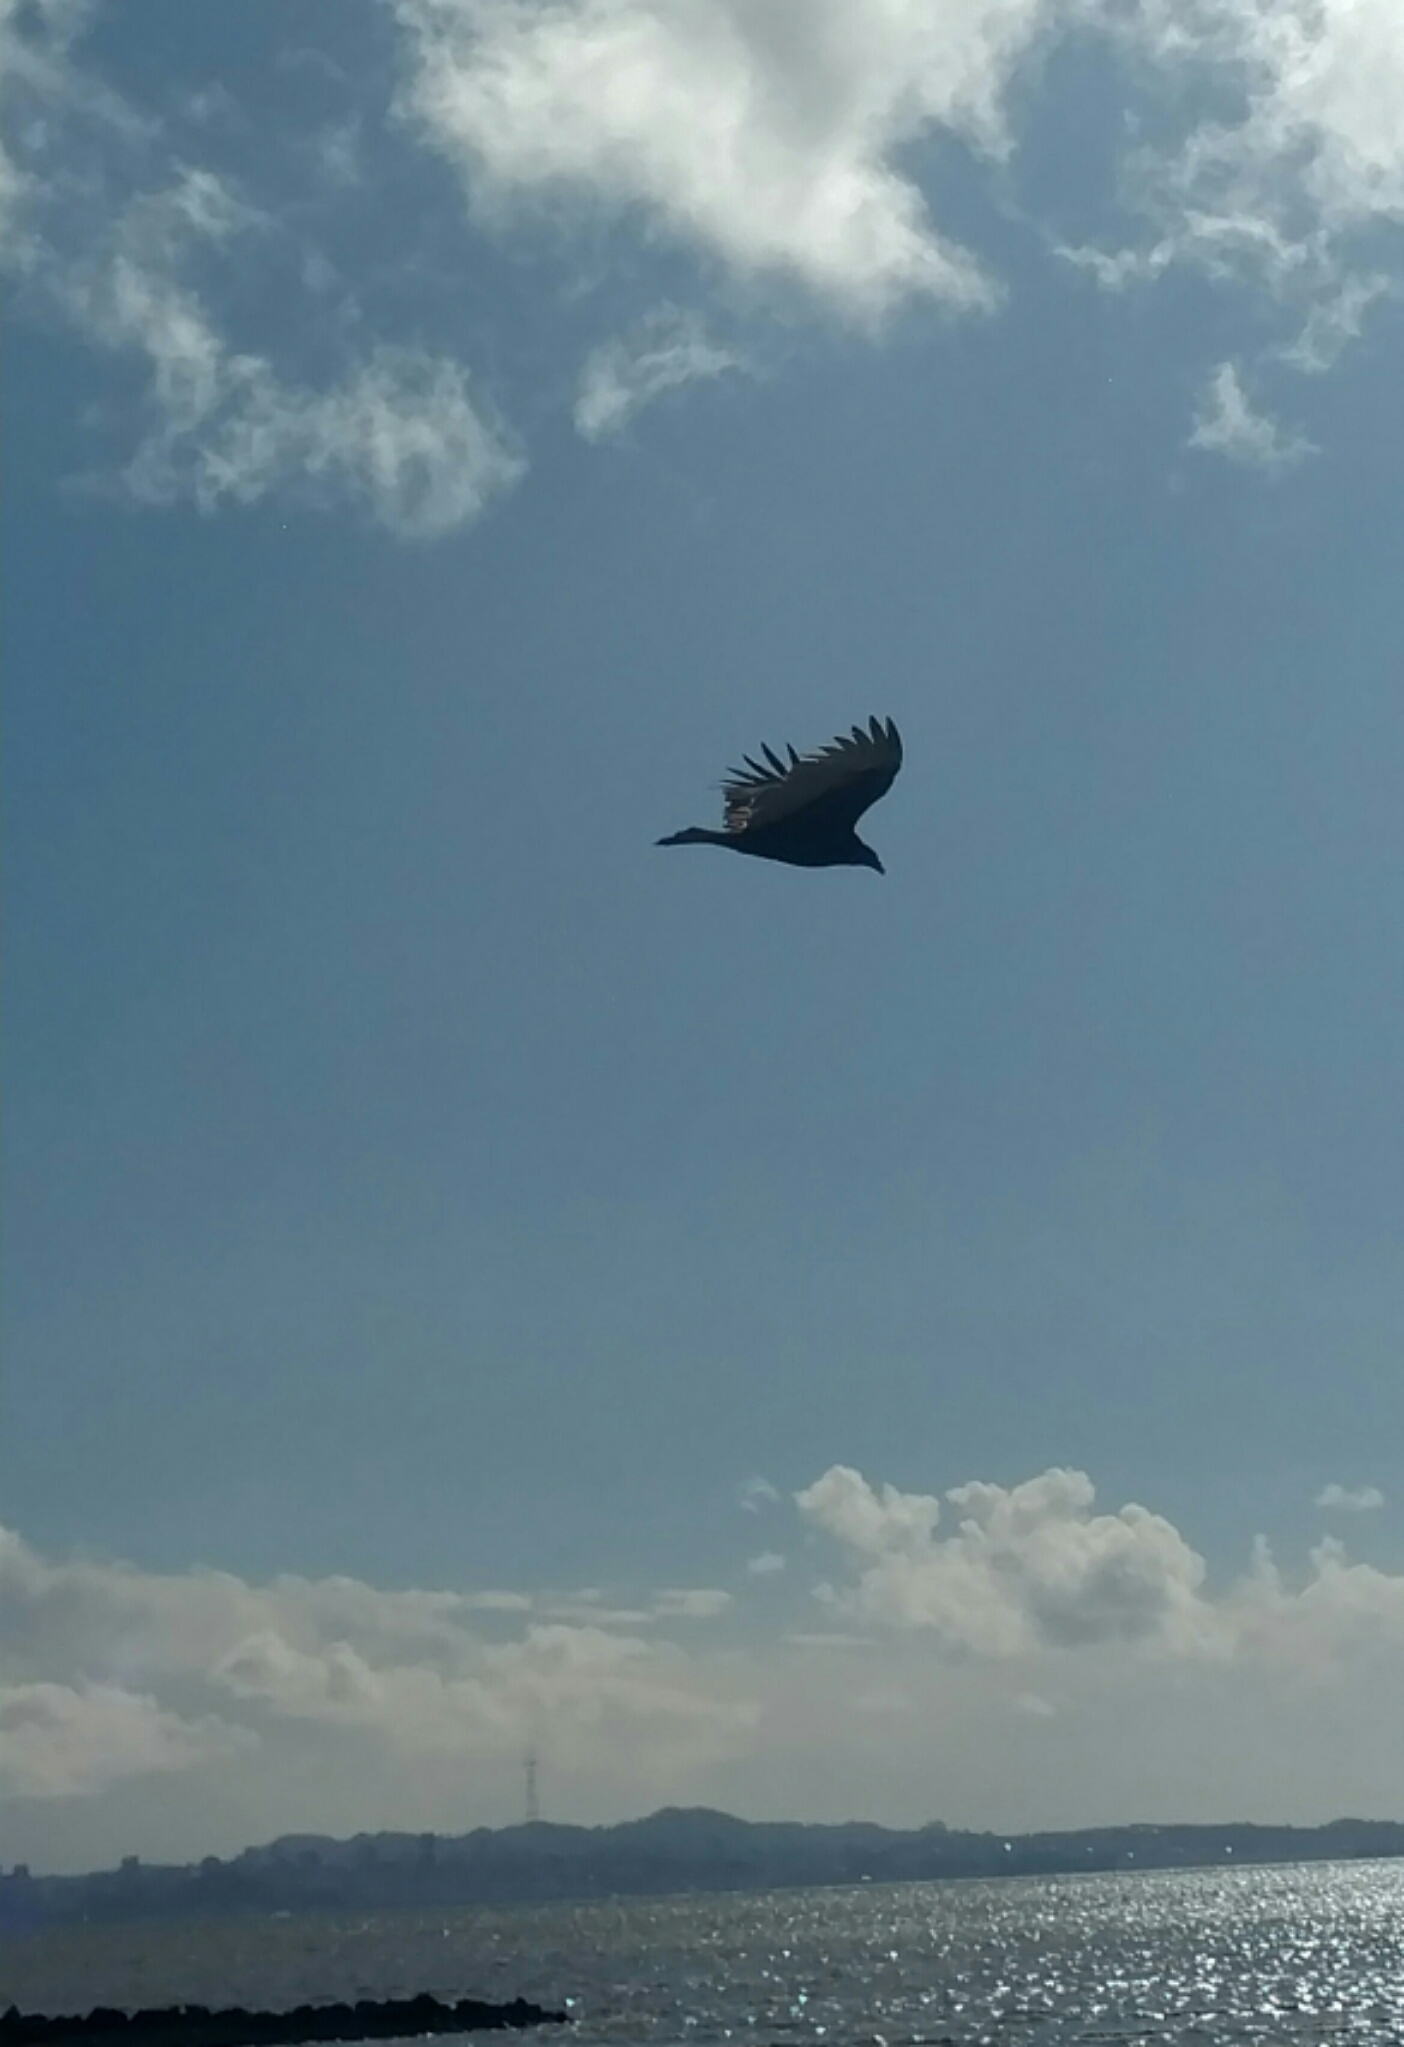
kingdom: Animalia
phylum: Chordata
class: Aves
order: Accipitriformes
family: Cathartidae
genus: Cathartes
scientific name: Cathartes aura
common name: Turkey vulture
